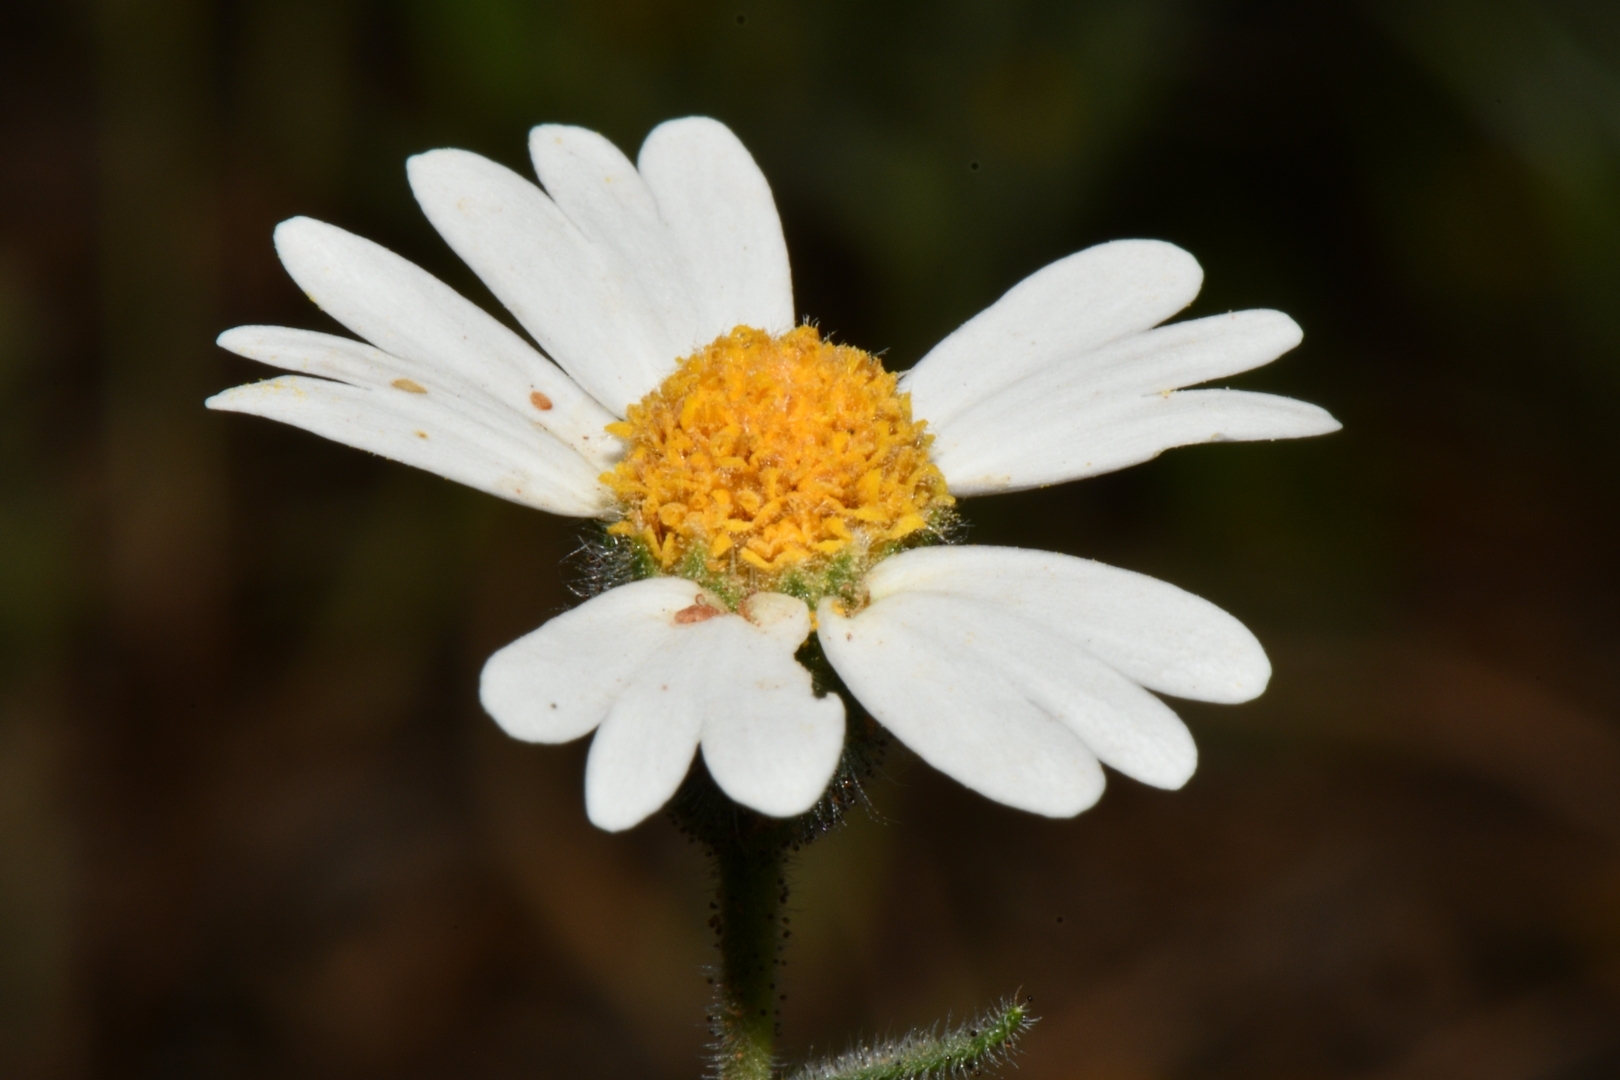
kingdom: Plantae
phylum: Tracheophyta
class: Magnoliopsida
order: Asterales
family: Asteraceae
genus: Layia
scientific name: Layia glandulosa
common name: White layia
